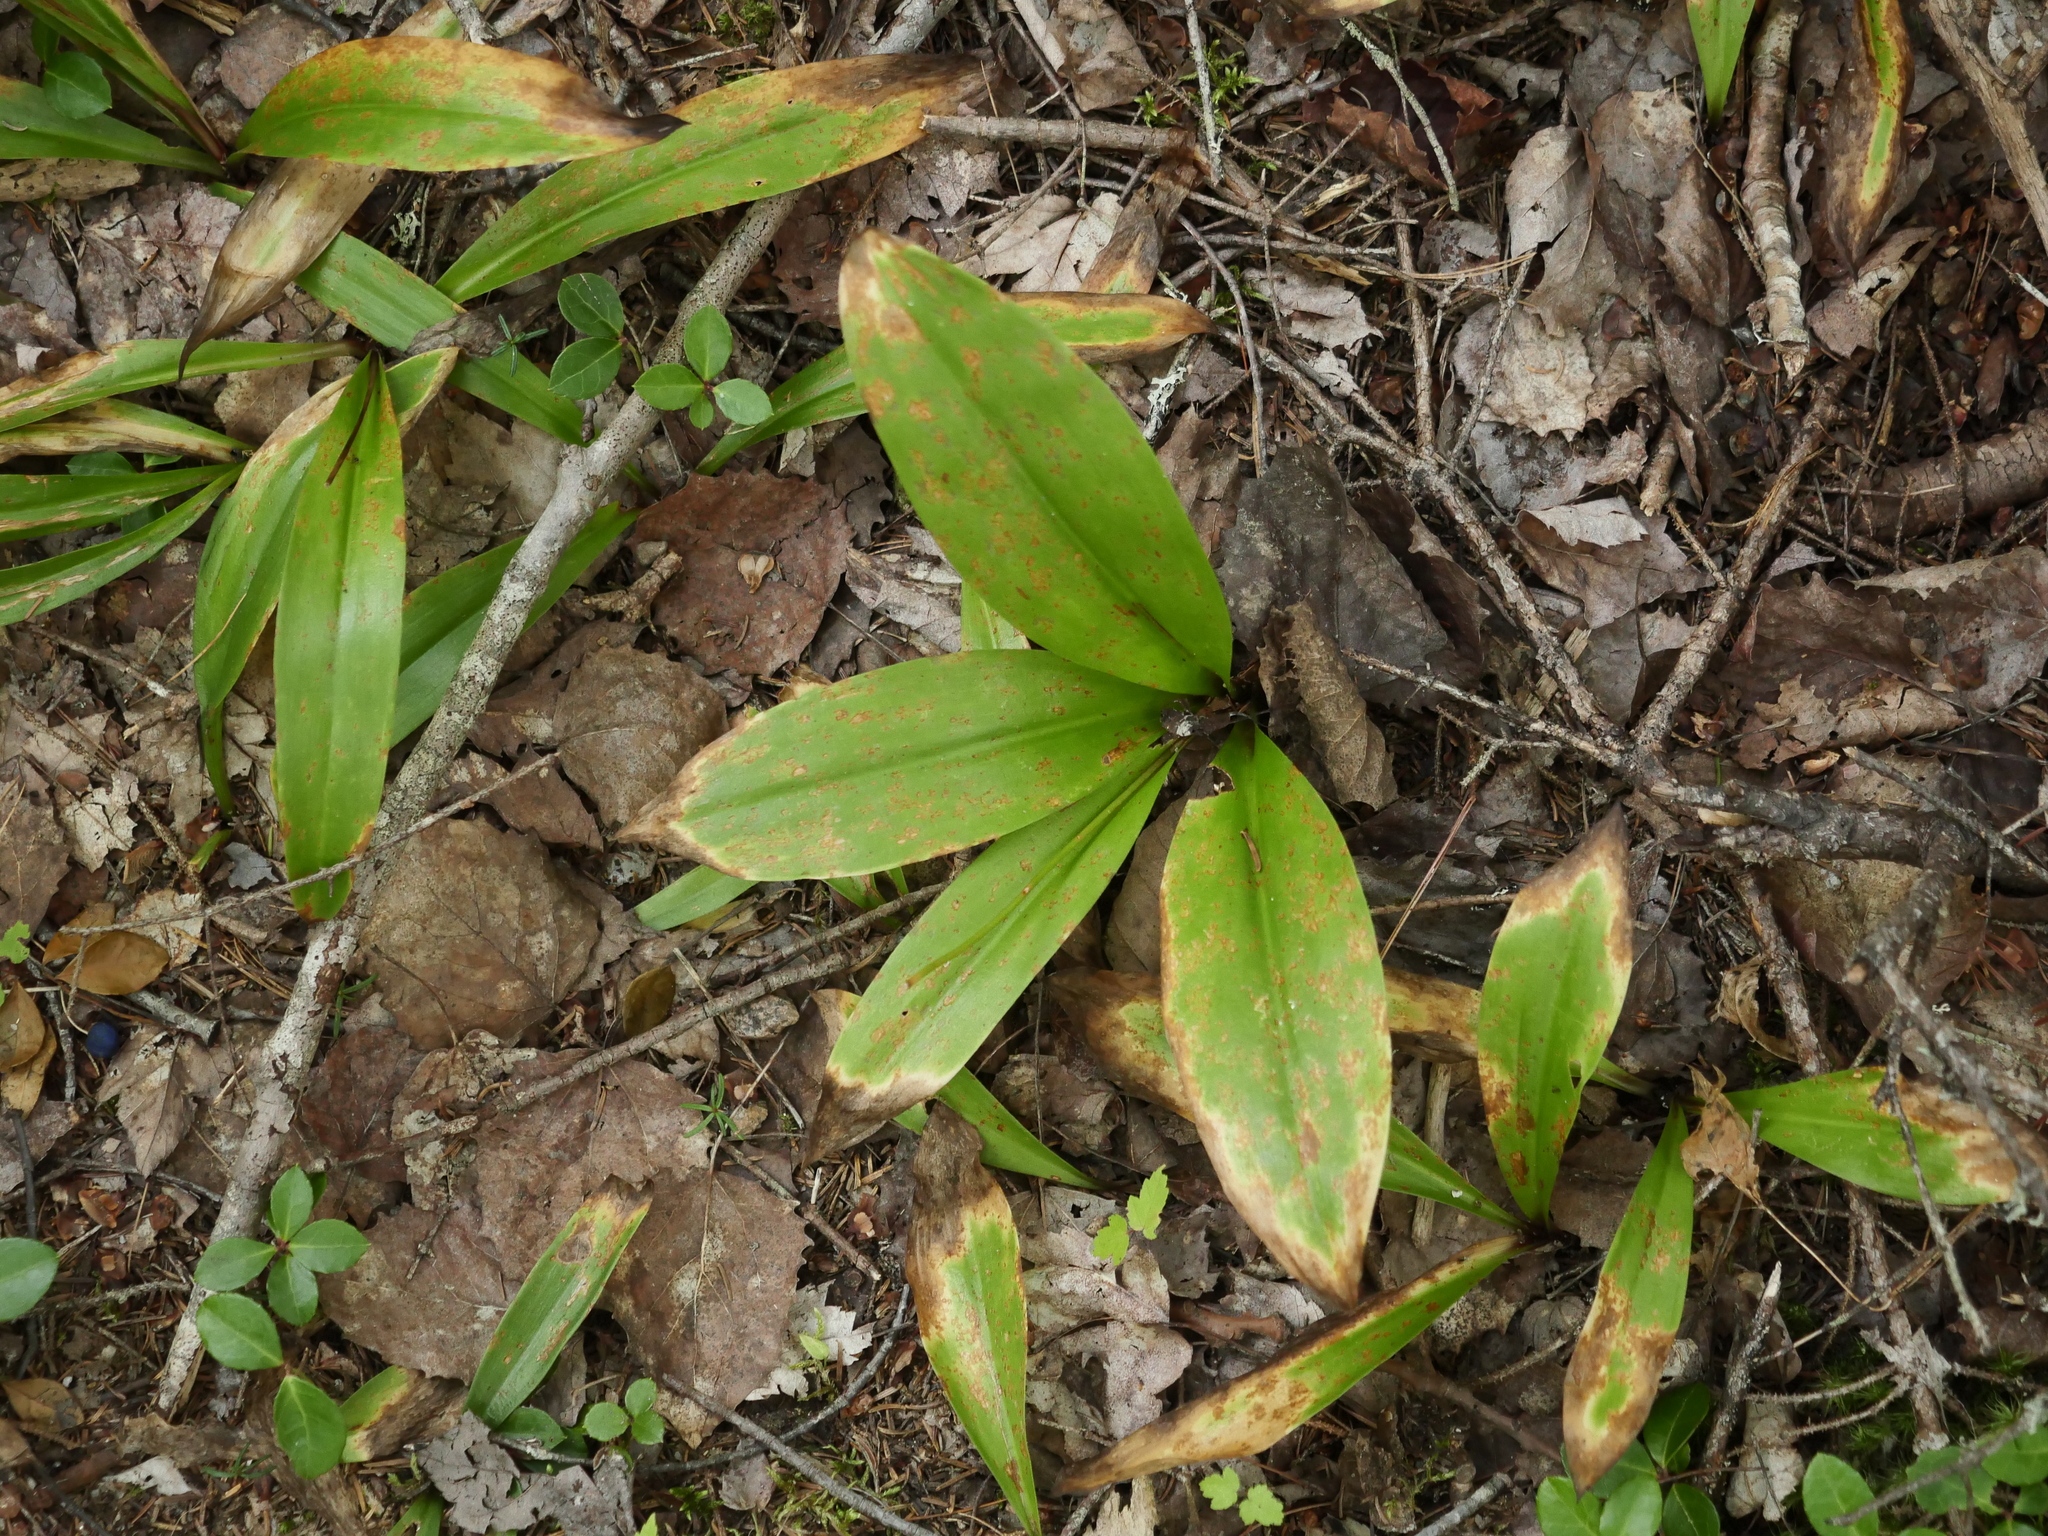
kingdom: Plantae
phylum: Tracheophyta
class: Liliopsida
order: Liliales
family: Liliaceae
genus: Clintonia
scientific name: Clintonia borealis
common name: Yellow clintonia
